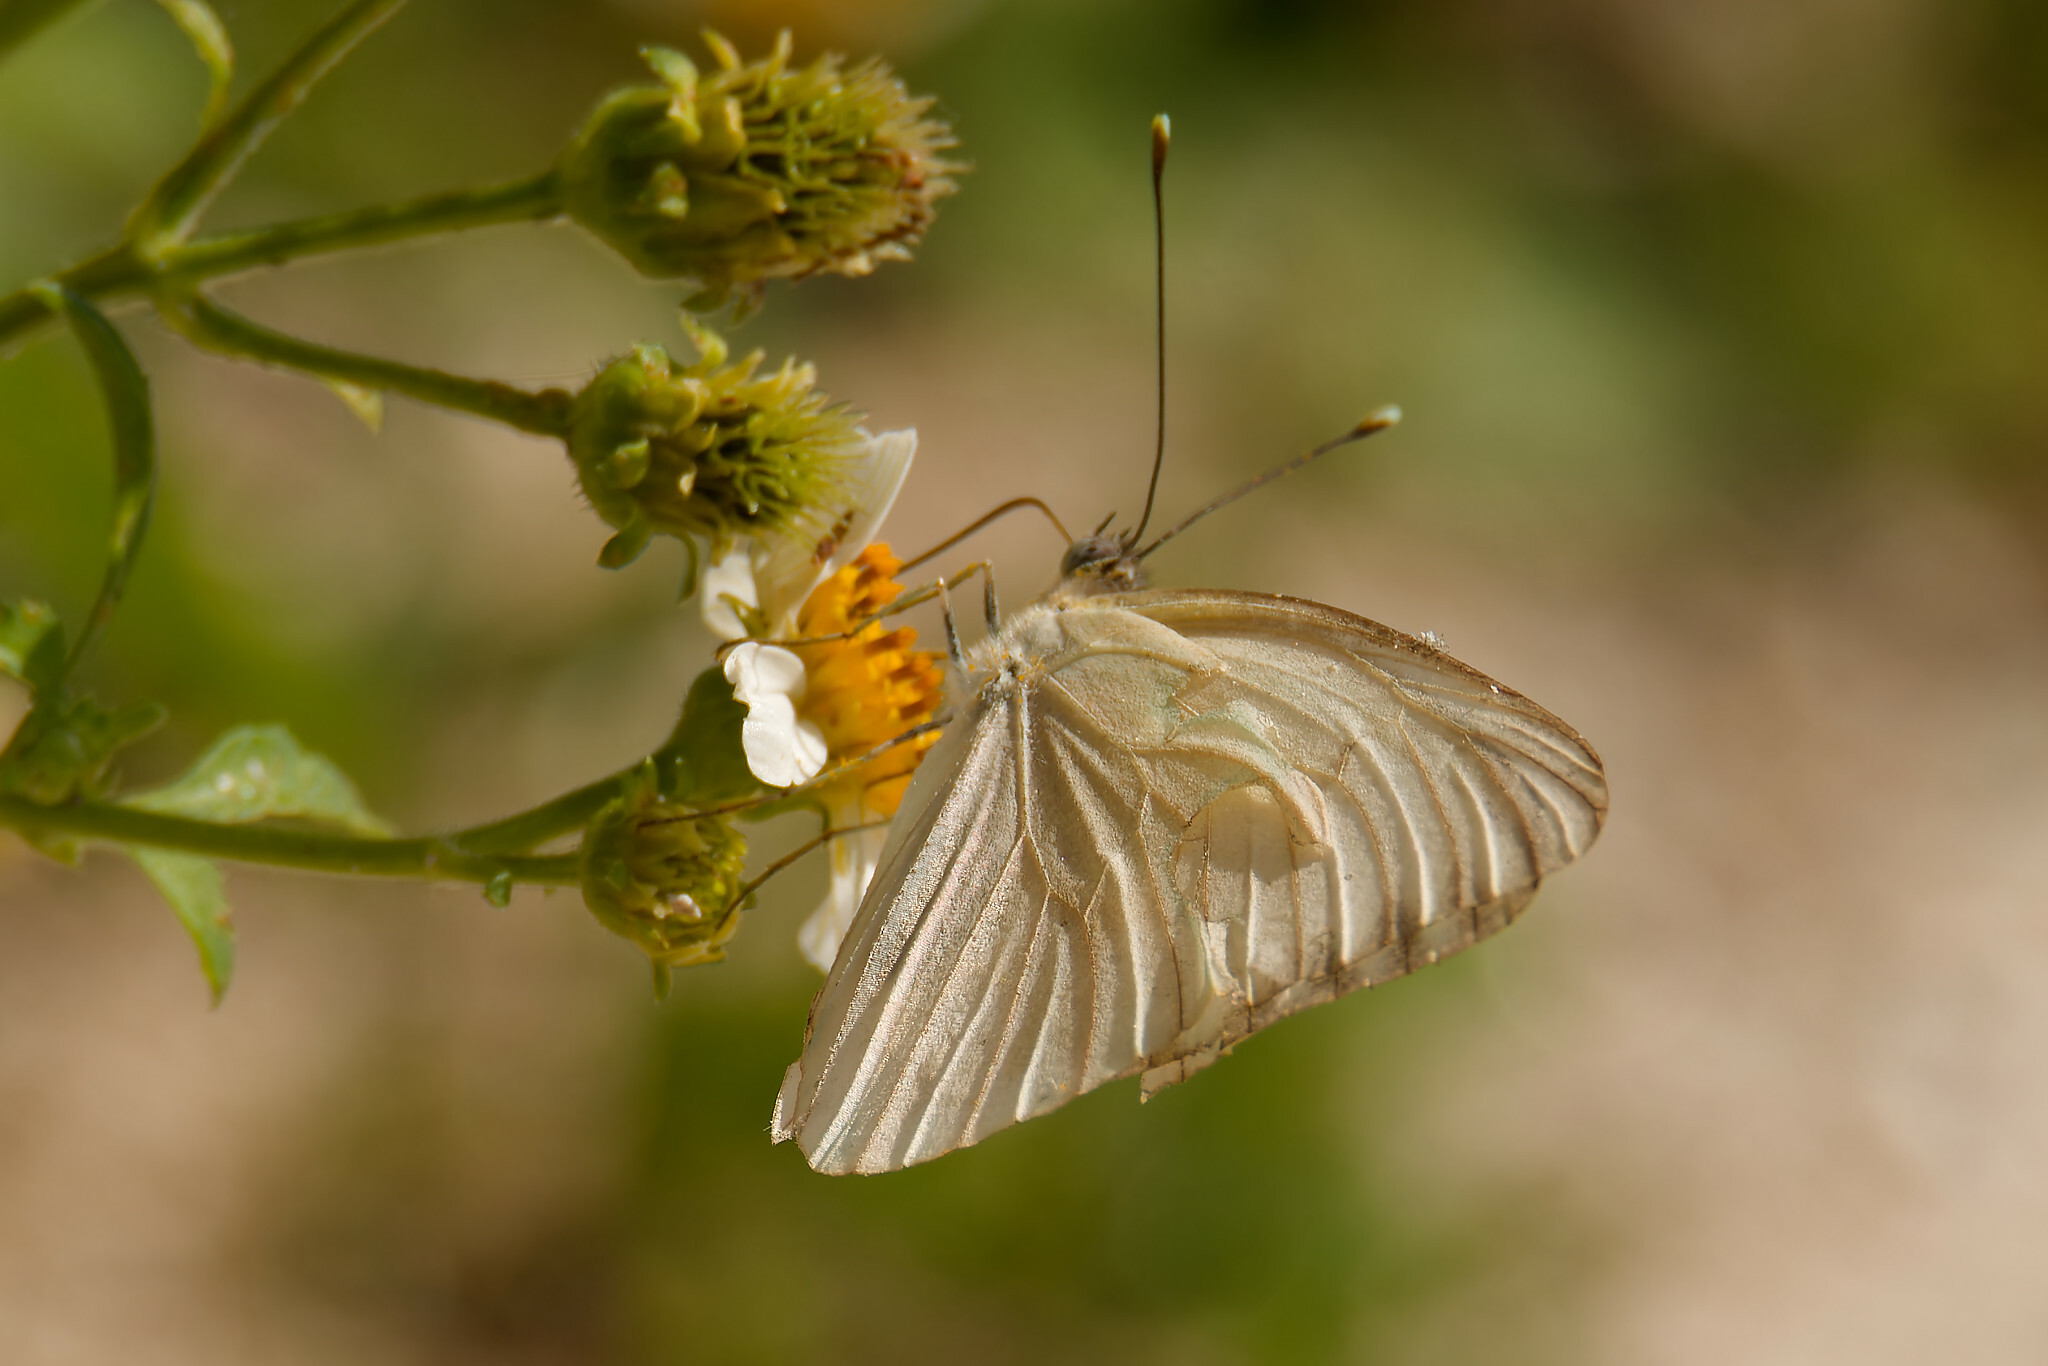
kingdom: Animalia
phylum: Arthropoda
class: Insecta
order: Lepidoptera
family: Pieridae
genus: Ascia
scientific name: Ascia monuste
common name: Great southern white
